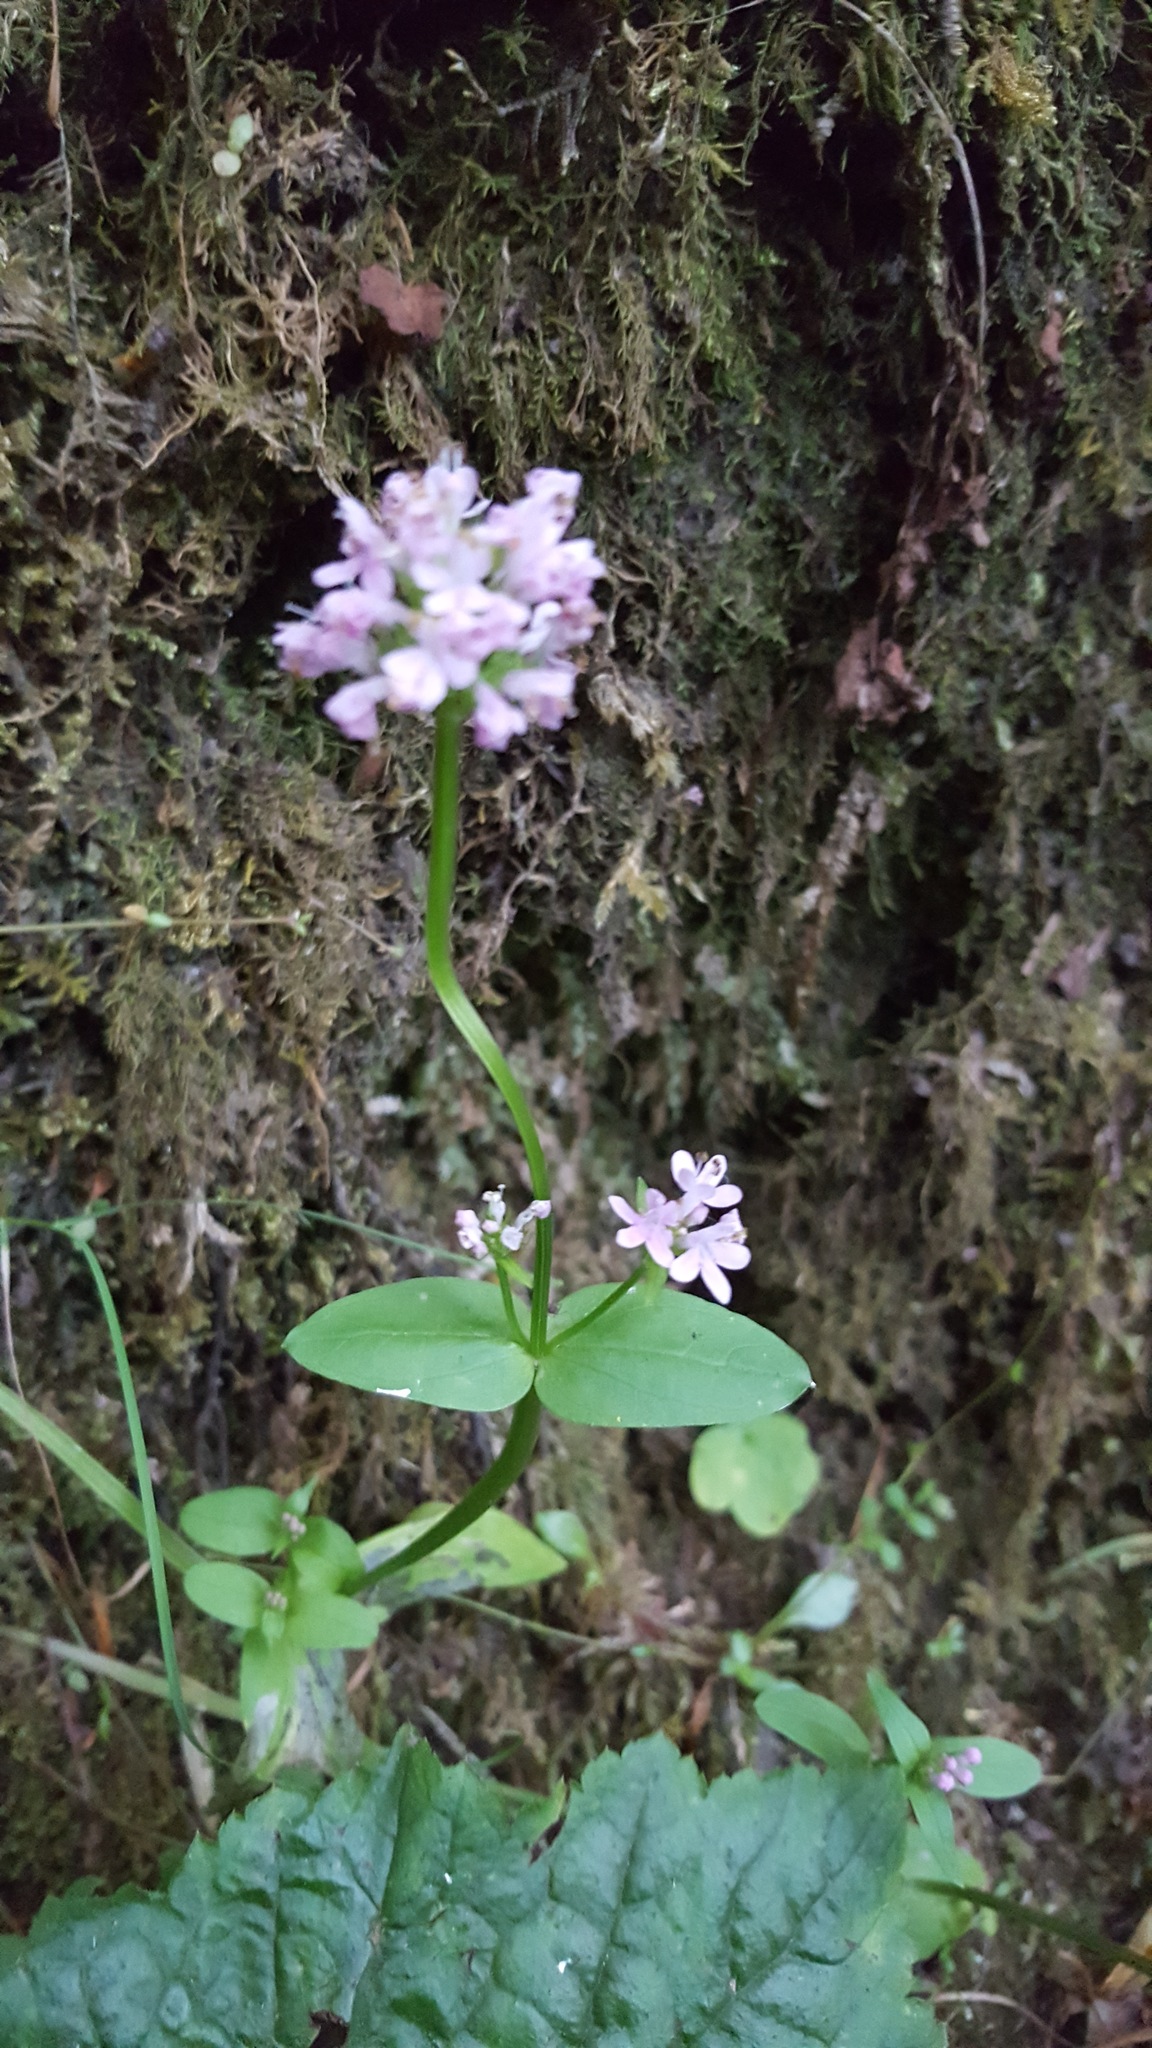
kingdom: Plantae
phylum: Tracheophyta
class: Magnoliopsida
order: Dipsacales
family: Caprifoliaceae
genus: Plectritis
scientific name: Plectritis congesta
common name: Pink plectritis
